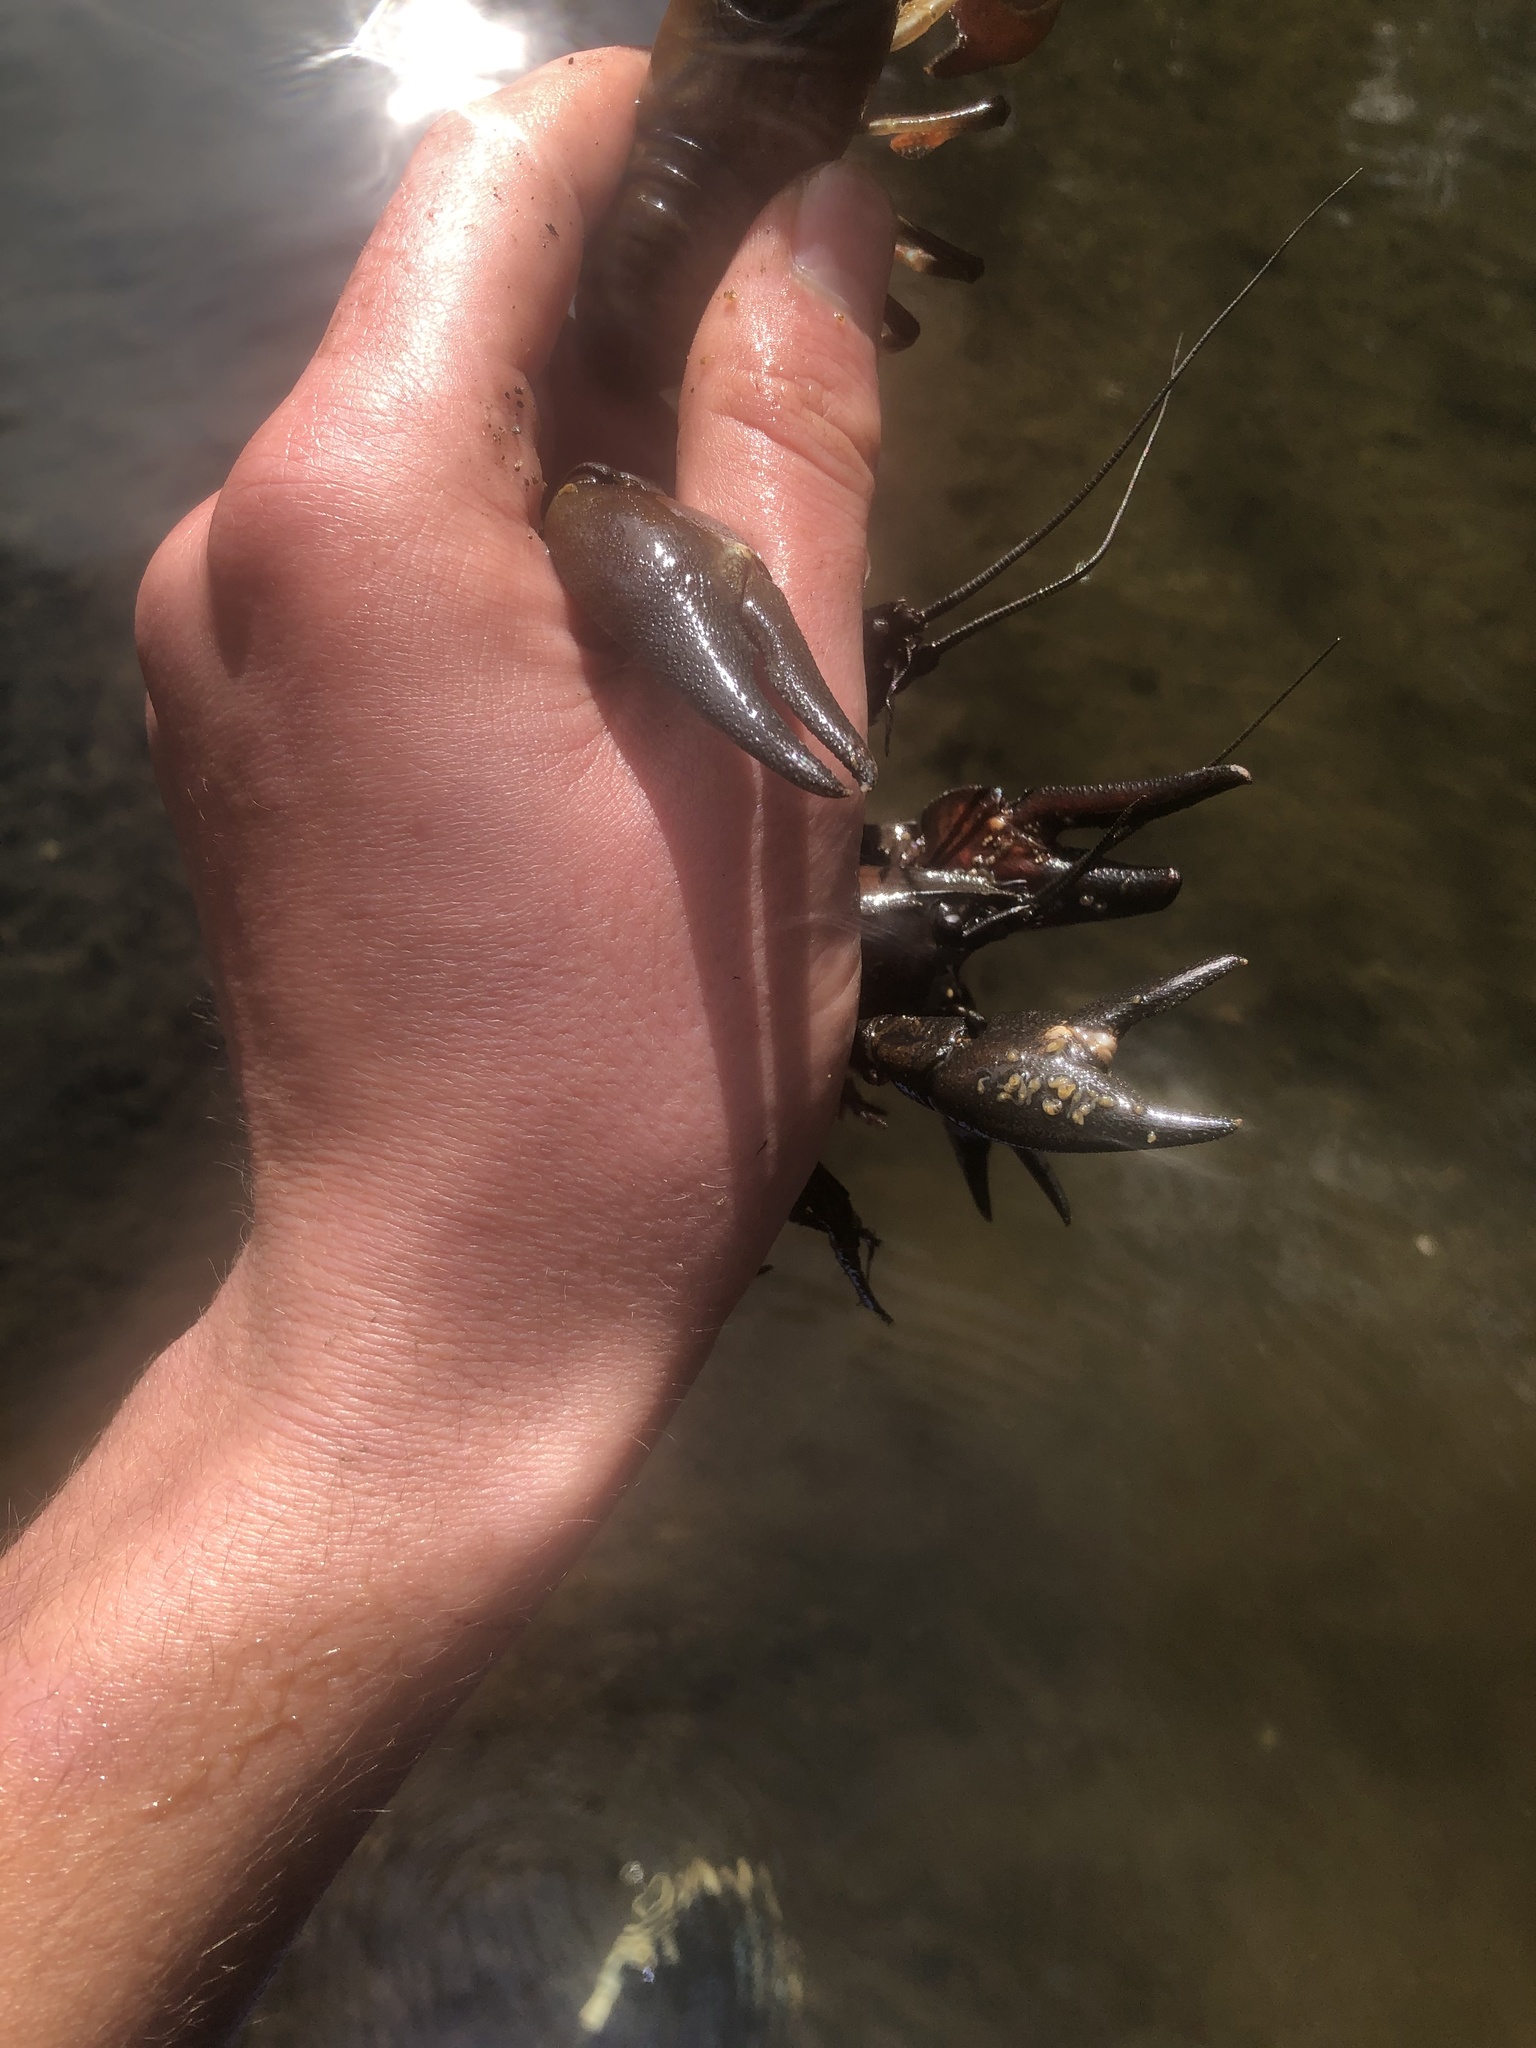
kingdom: Animalia
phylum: Arthropoda
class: Malacostraca
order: Decapoda
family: Astacidae
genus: Pacifastacus
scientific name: Pacifastacus leniusculus
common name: Signal crayfish
